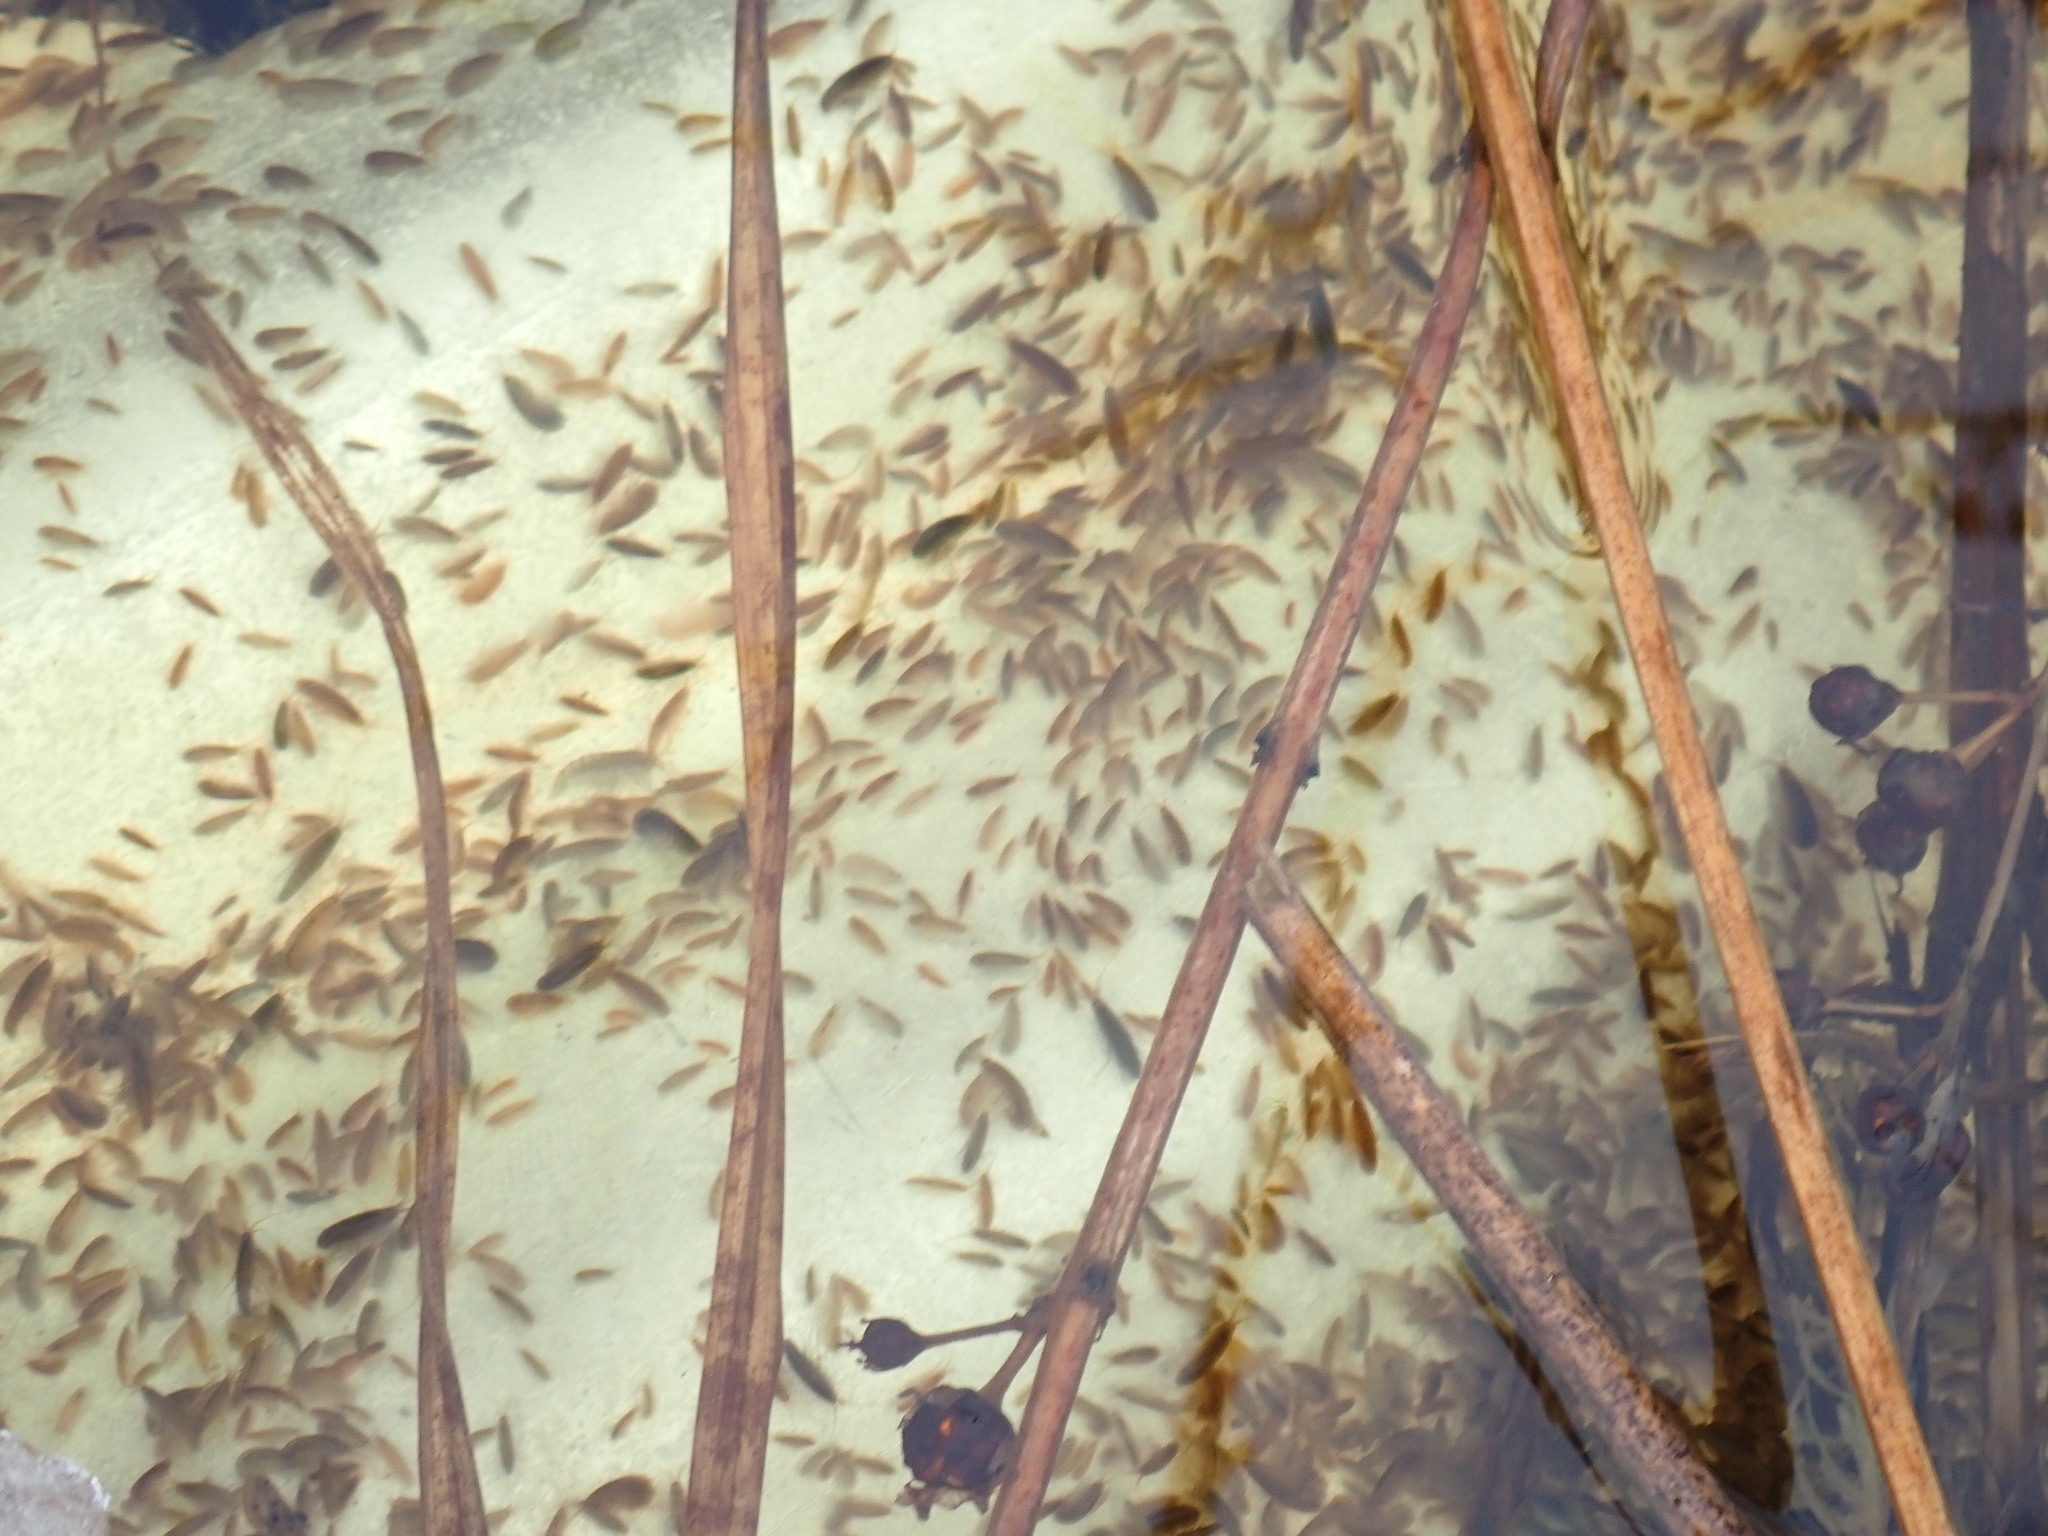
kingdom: Animalia
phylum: Arthropoda
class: Malacostraca
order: Amphipoda
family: Crangonyctidae
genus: Sicifera
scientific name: Sicifera chamberlaini
